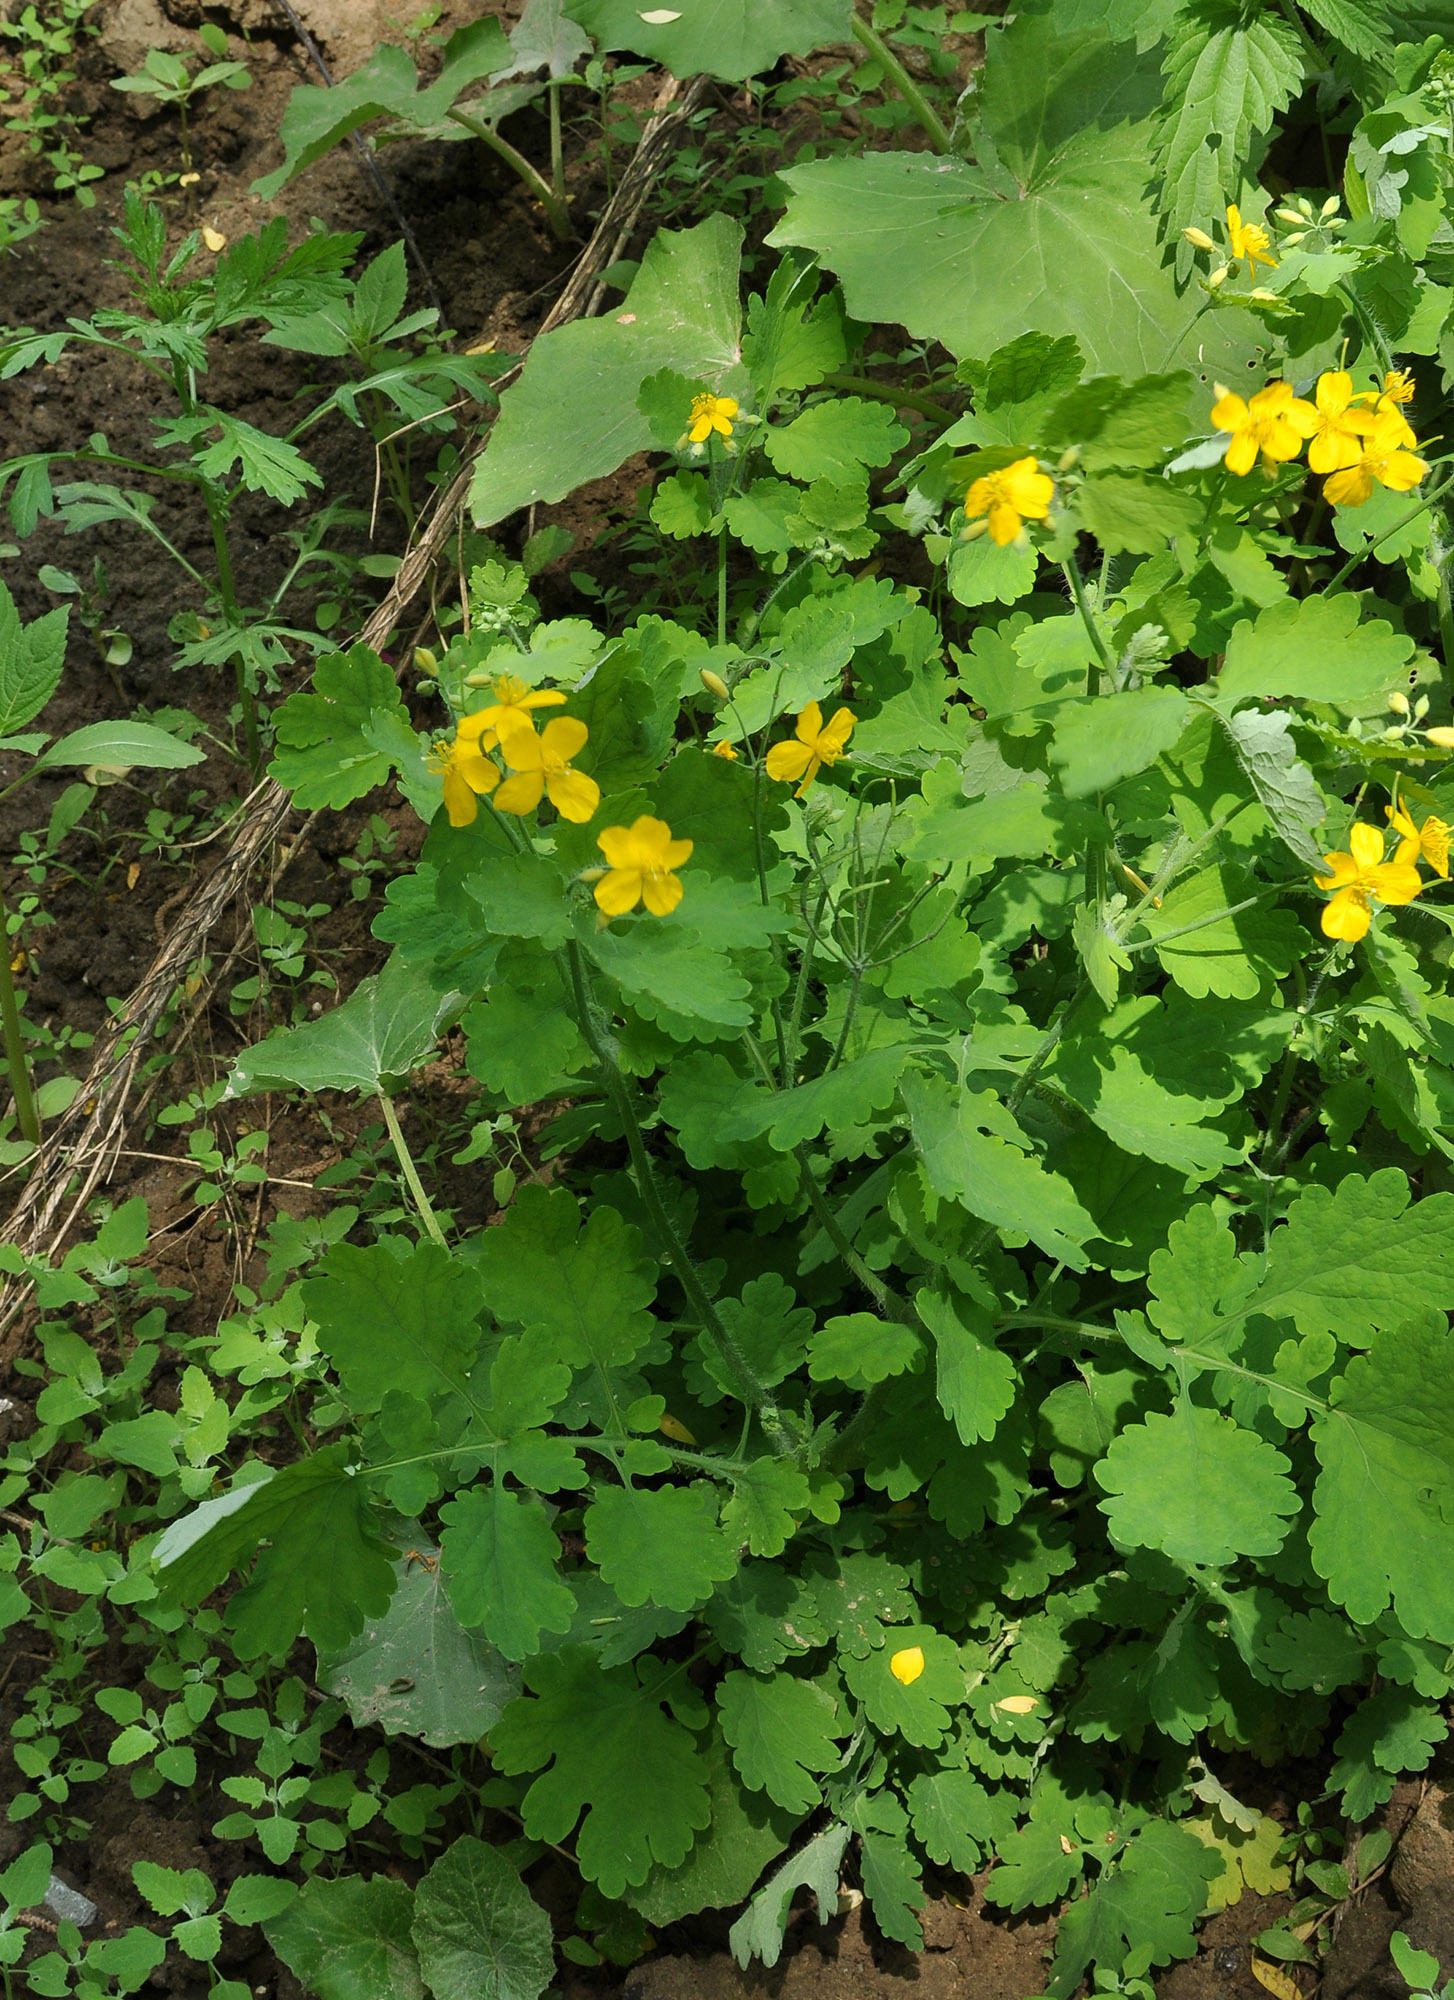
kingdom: Plantae
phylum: Tracheophyta
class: Magnoliopsida
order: Ranunculales
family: Papaveraceae
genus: Chelidonium
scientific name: Chelidonium majus
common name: Greater celandine
